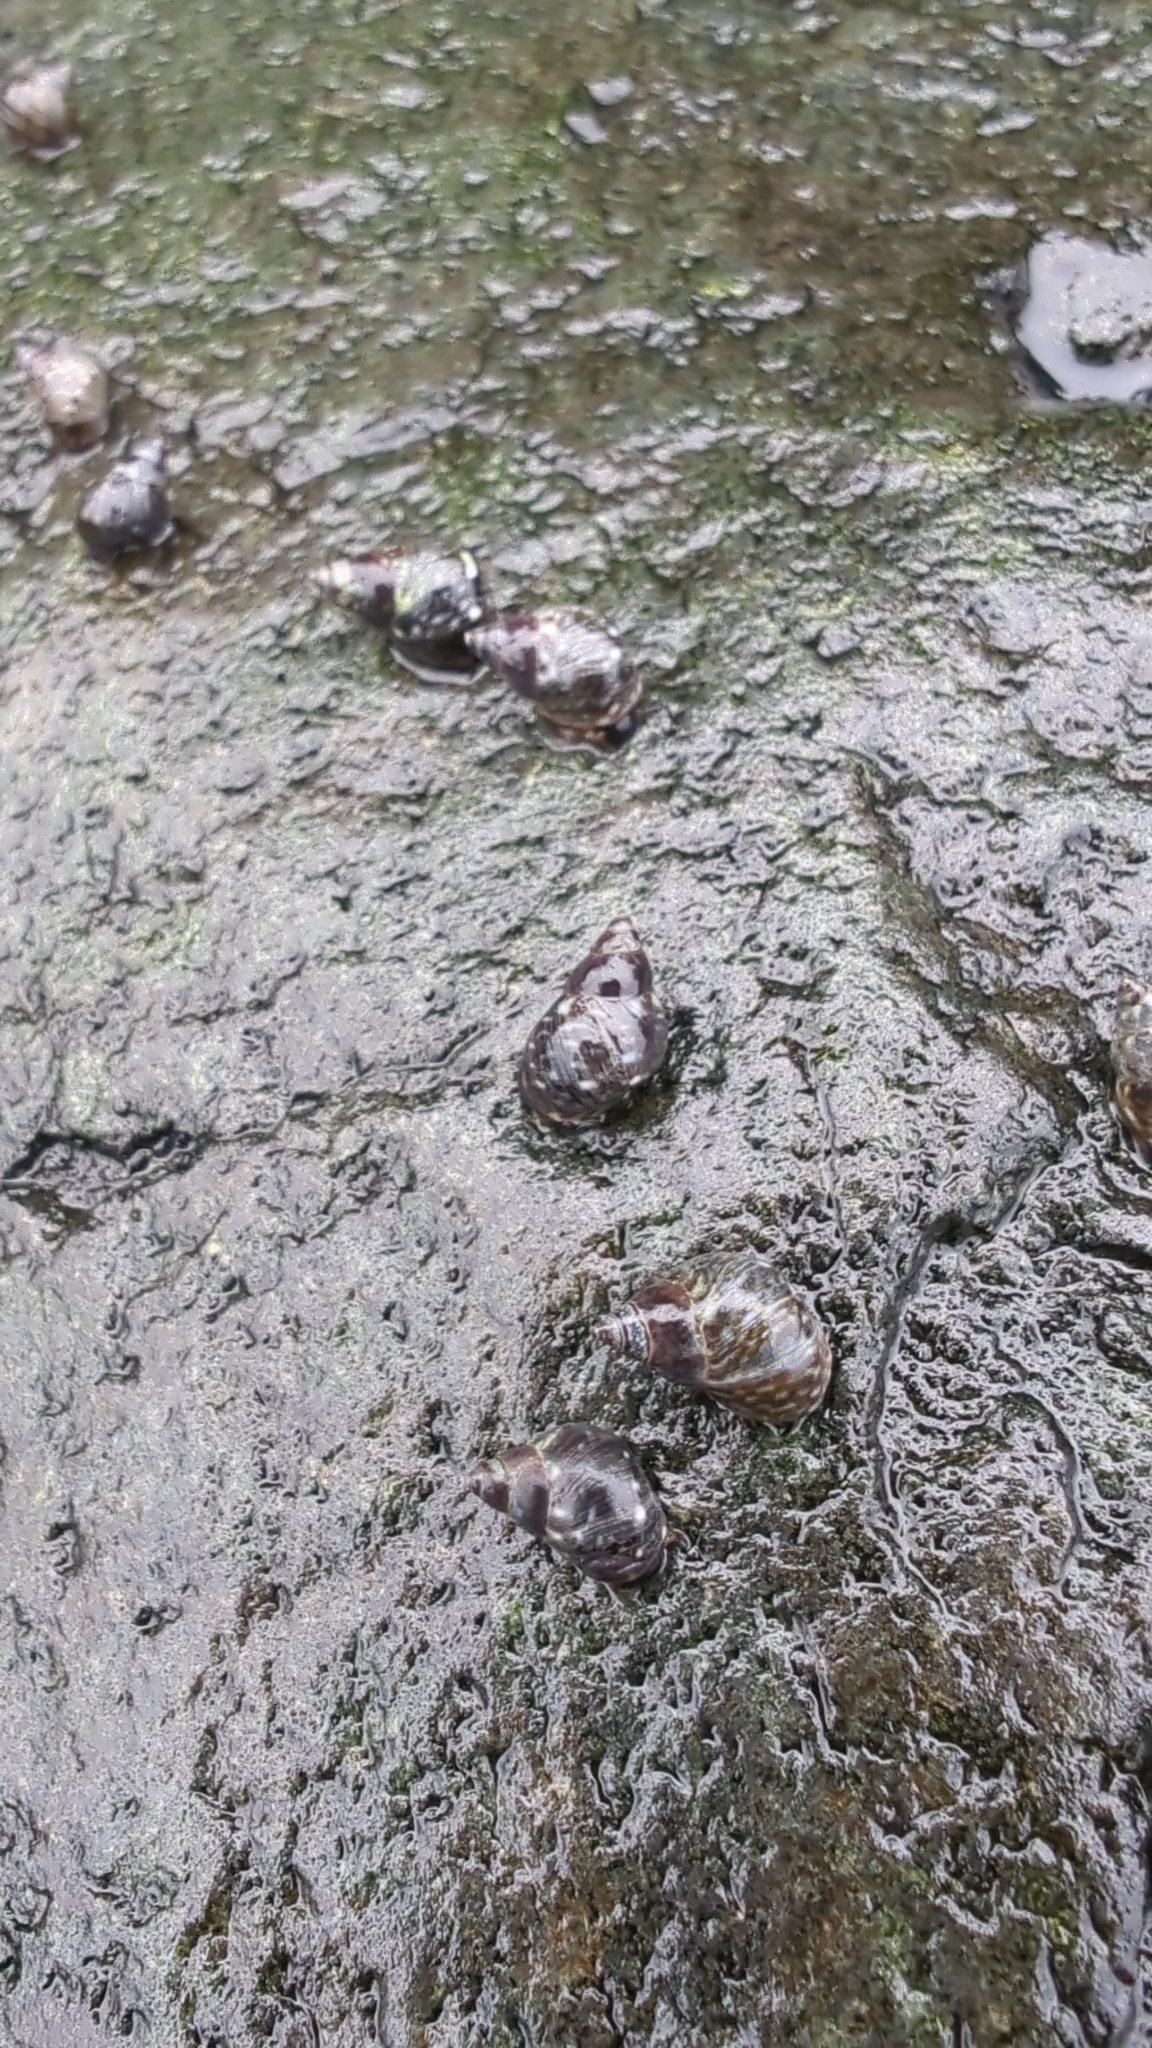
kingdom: Animalia
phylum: Mollusca
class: Gastropoda
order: Littorinimorpha
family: Littorinidae
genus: Littorina
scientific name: Littorina scutulata
